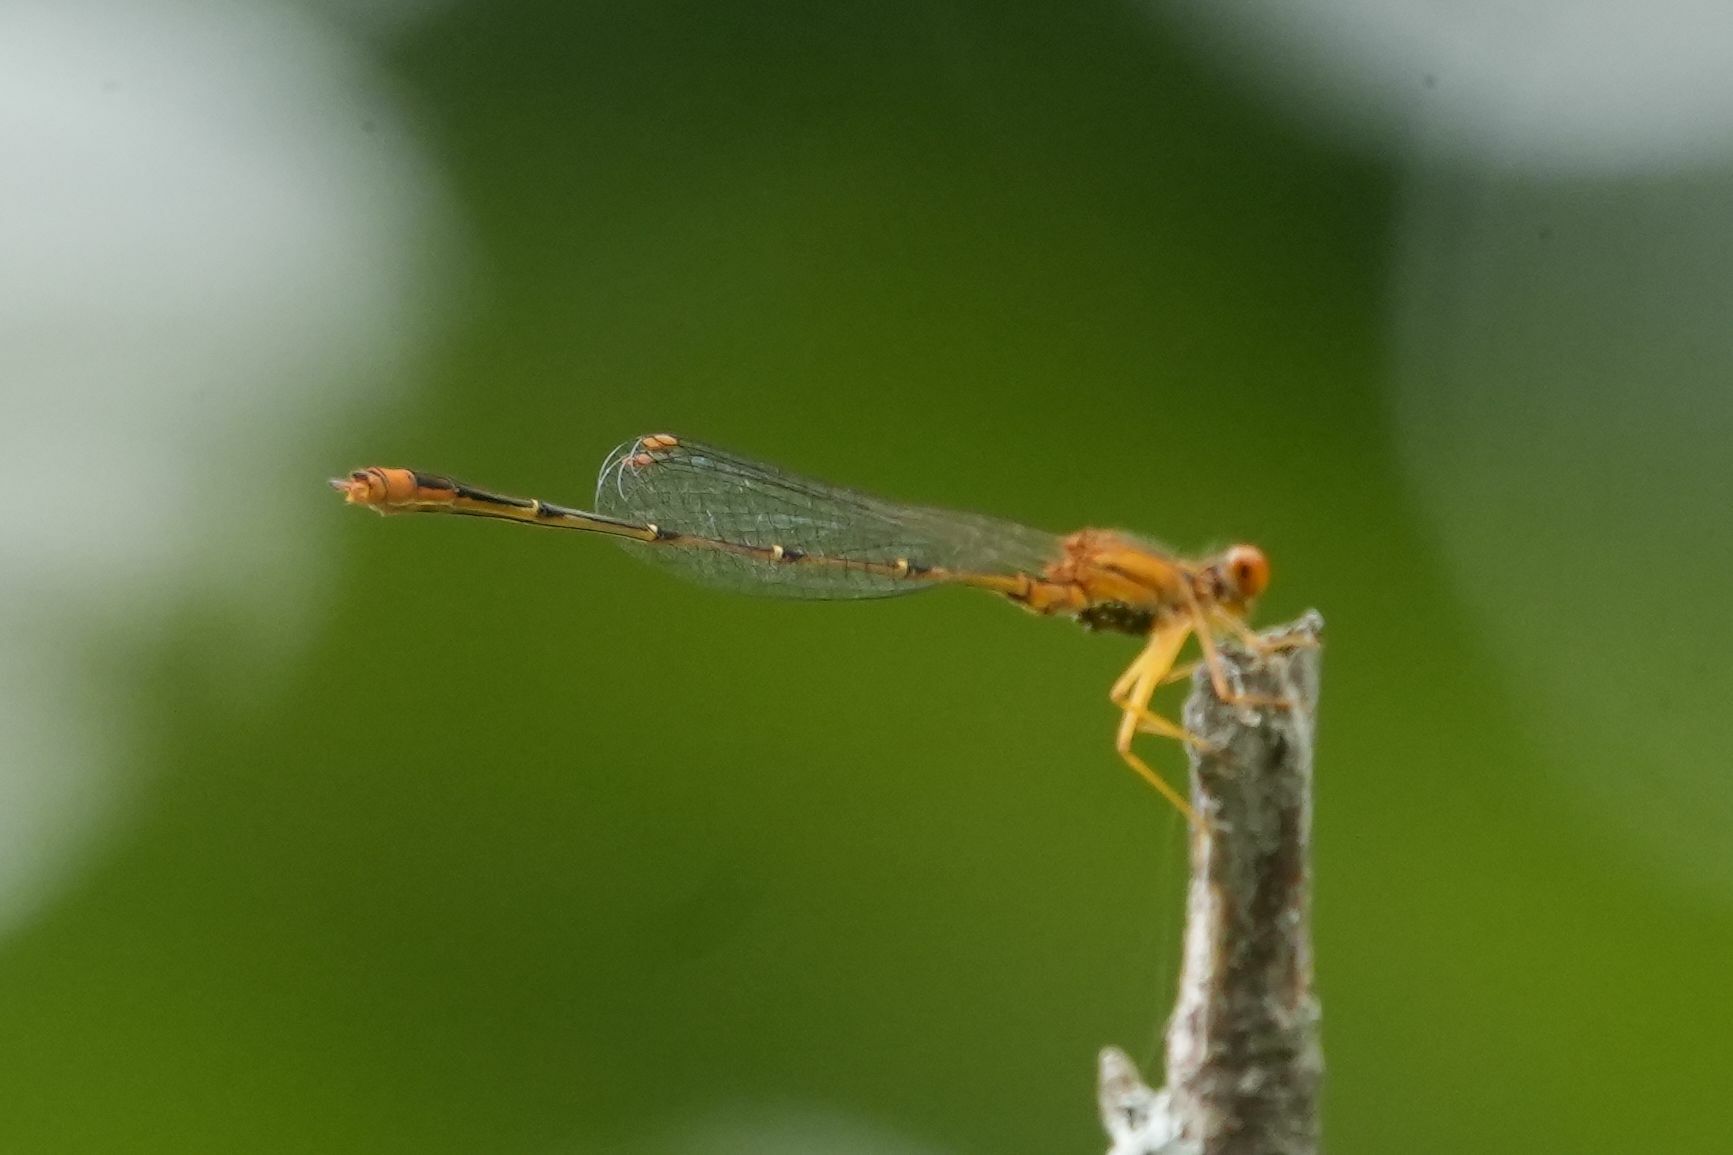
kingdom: Animalia
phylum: Arthropoda
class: Insecta
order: Odonata
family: Coenagrionidae
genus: Enallagma
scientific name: Enallagma signatum
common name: Orange bluet
